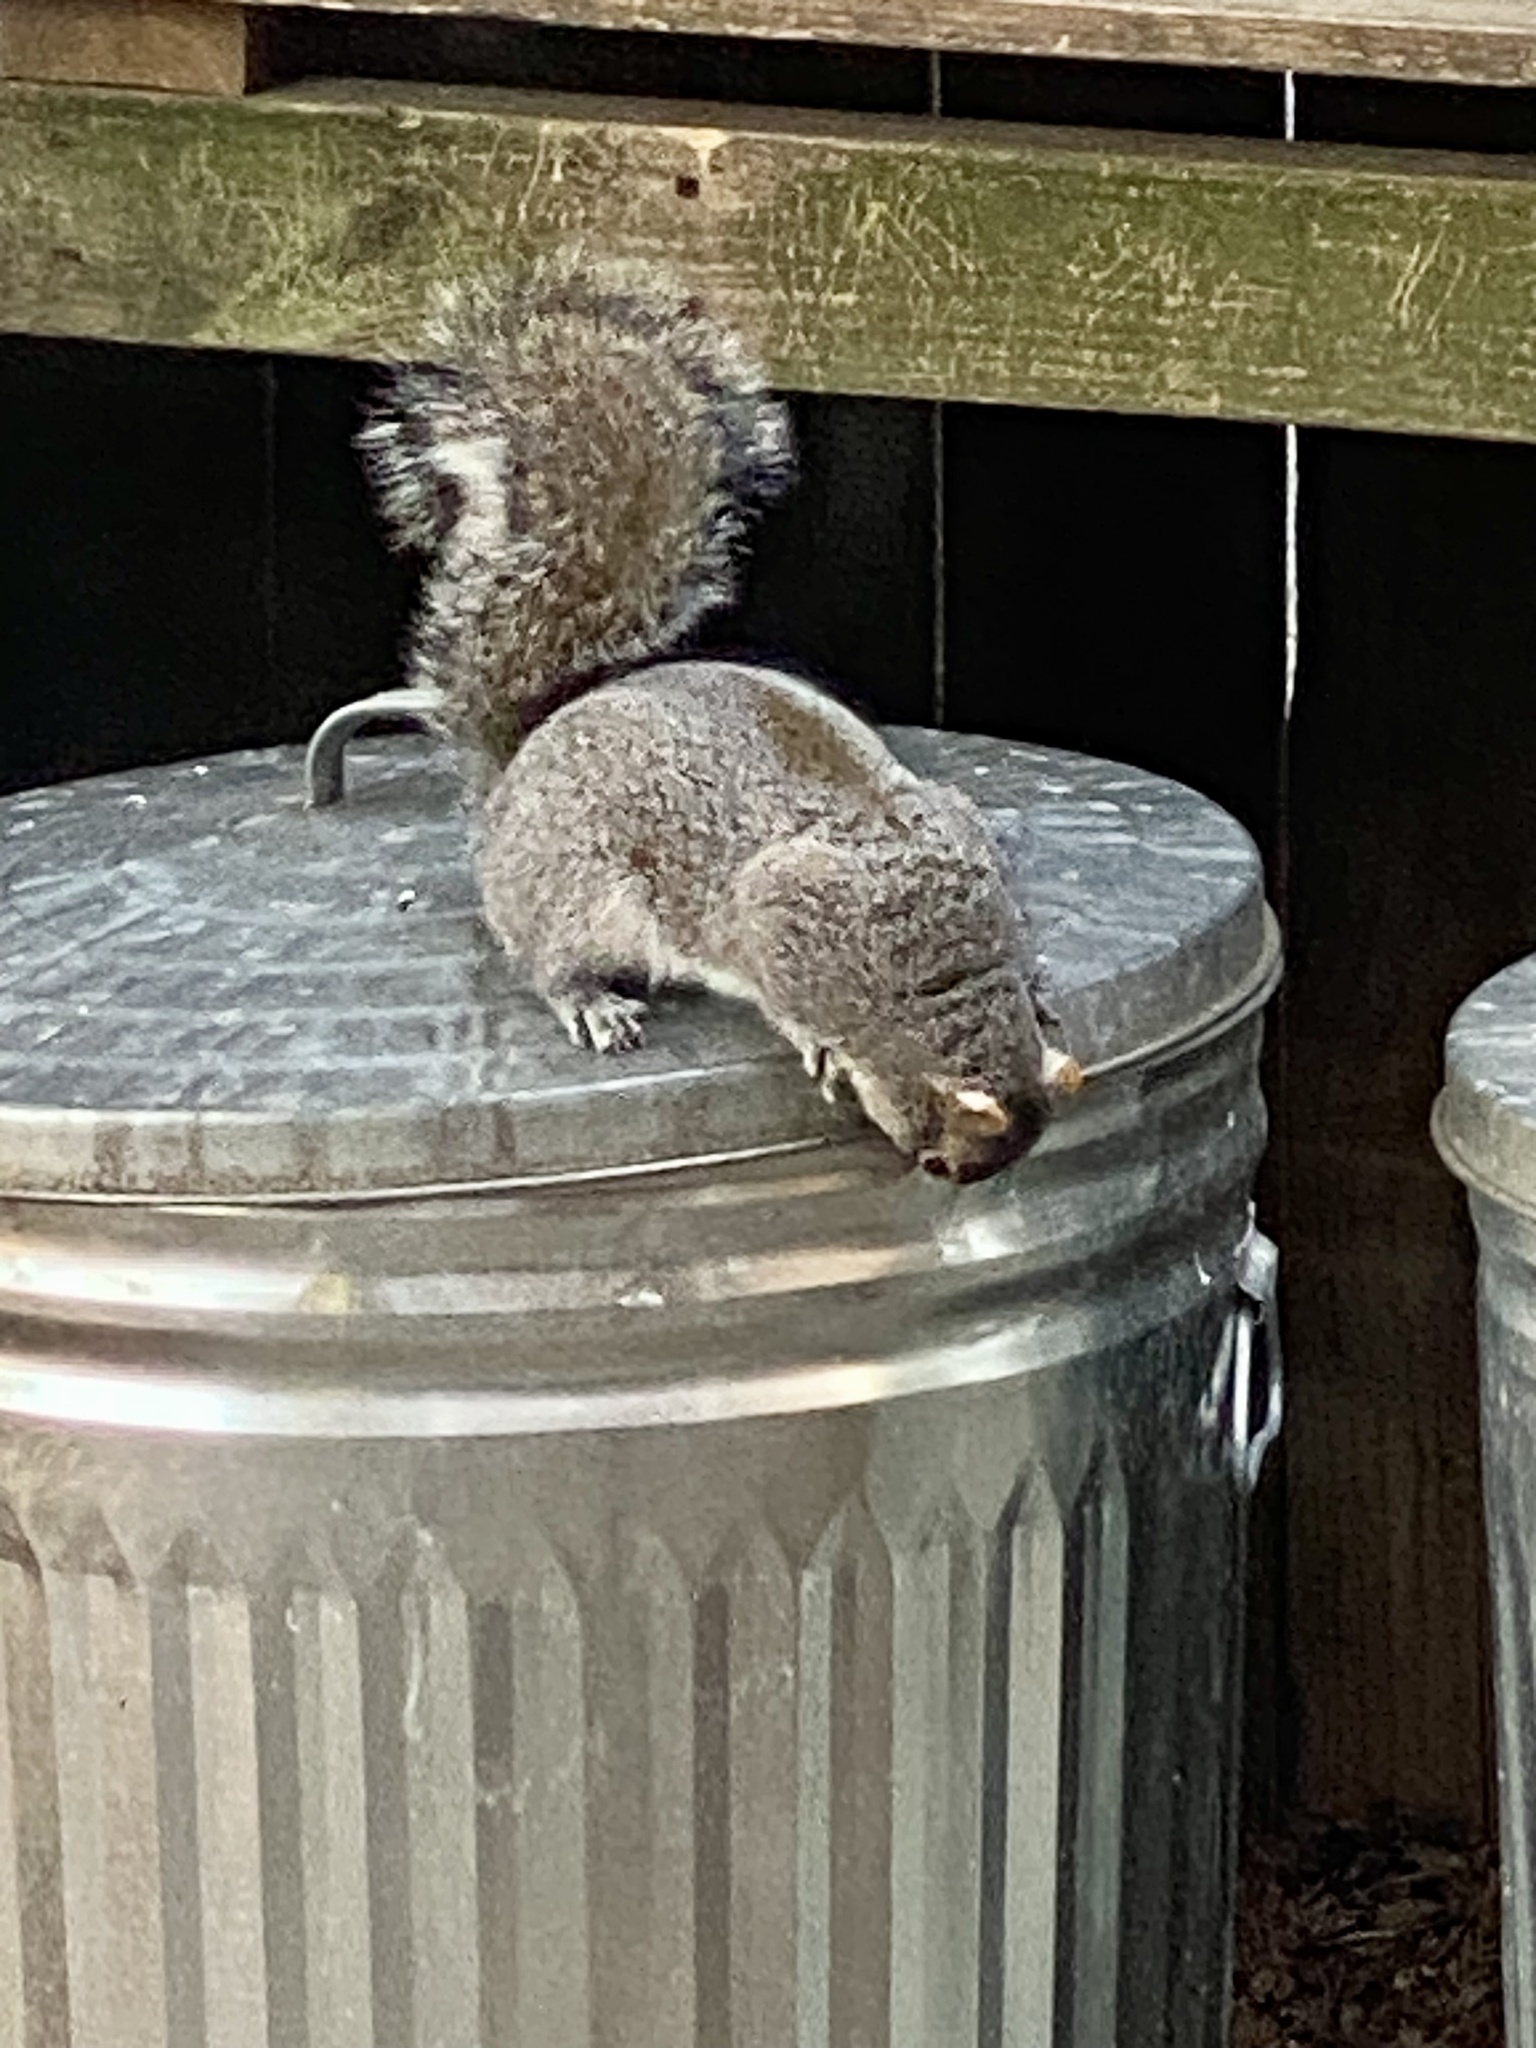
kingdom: Animalia
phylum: Chordata
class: Mammalia
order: Rodentia
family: Sciuridae
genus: Sciurus
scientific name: Sciurus carolinensis
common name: Eastern gray squirrel
